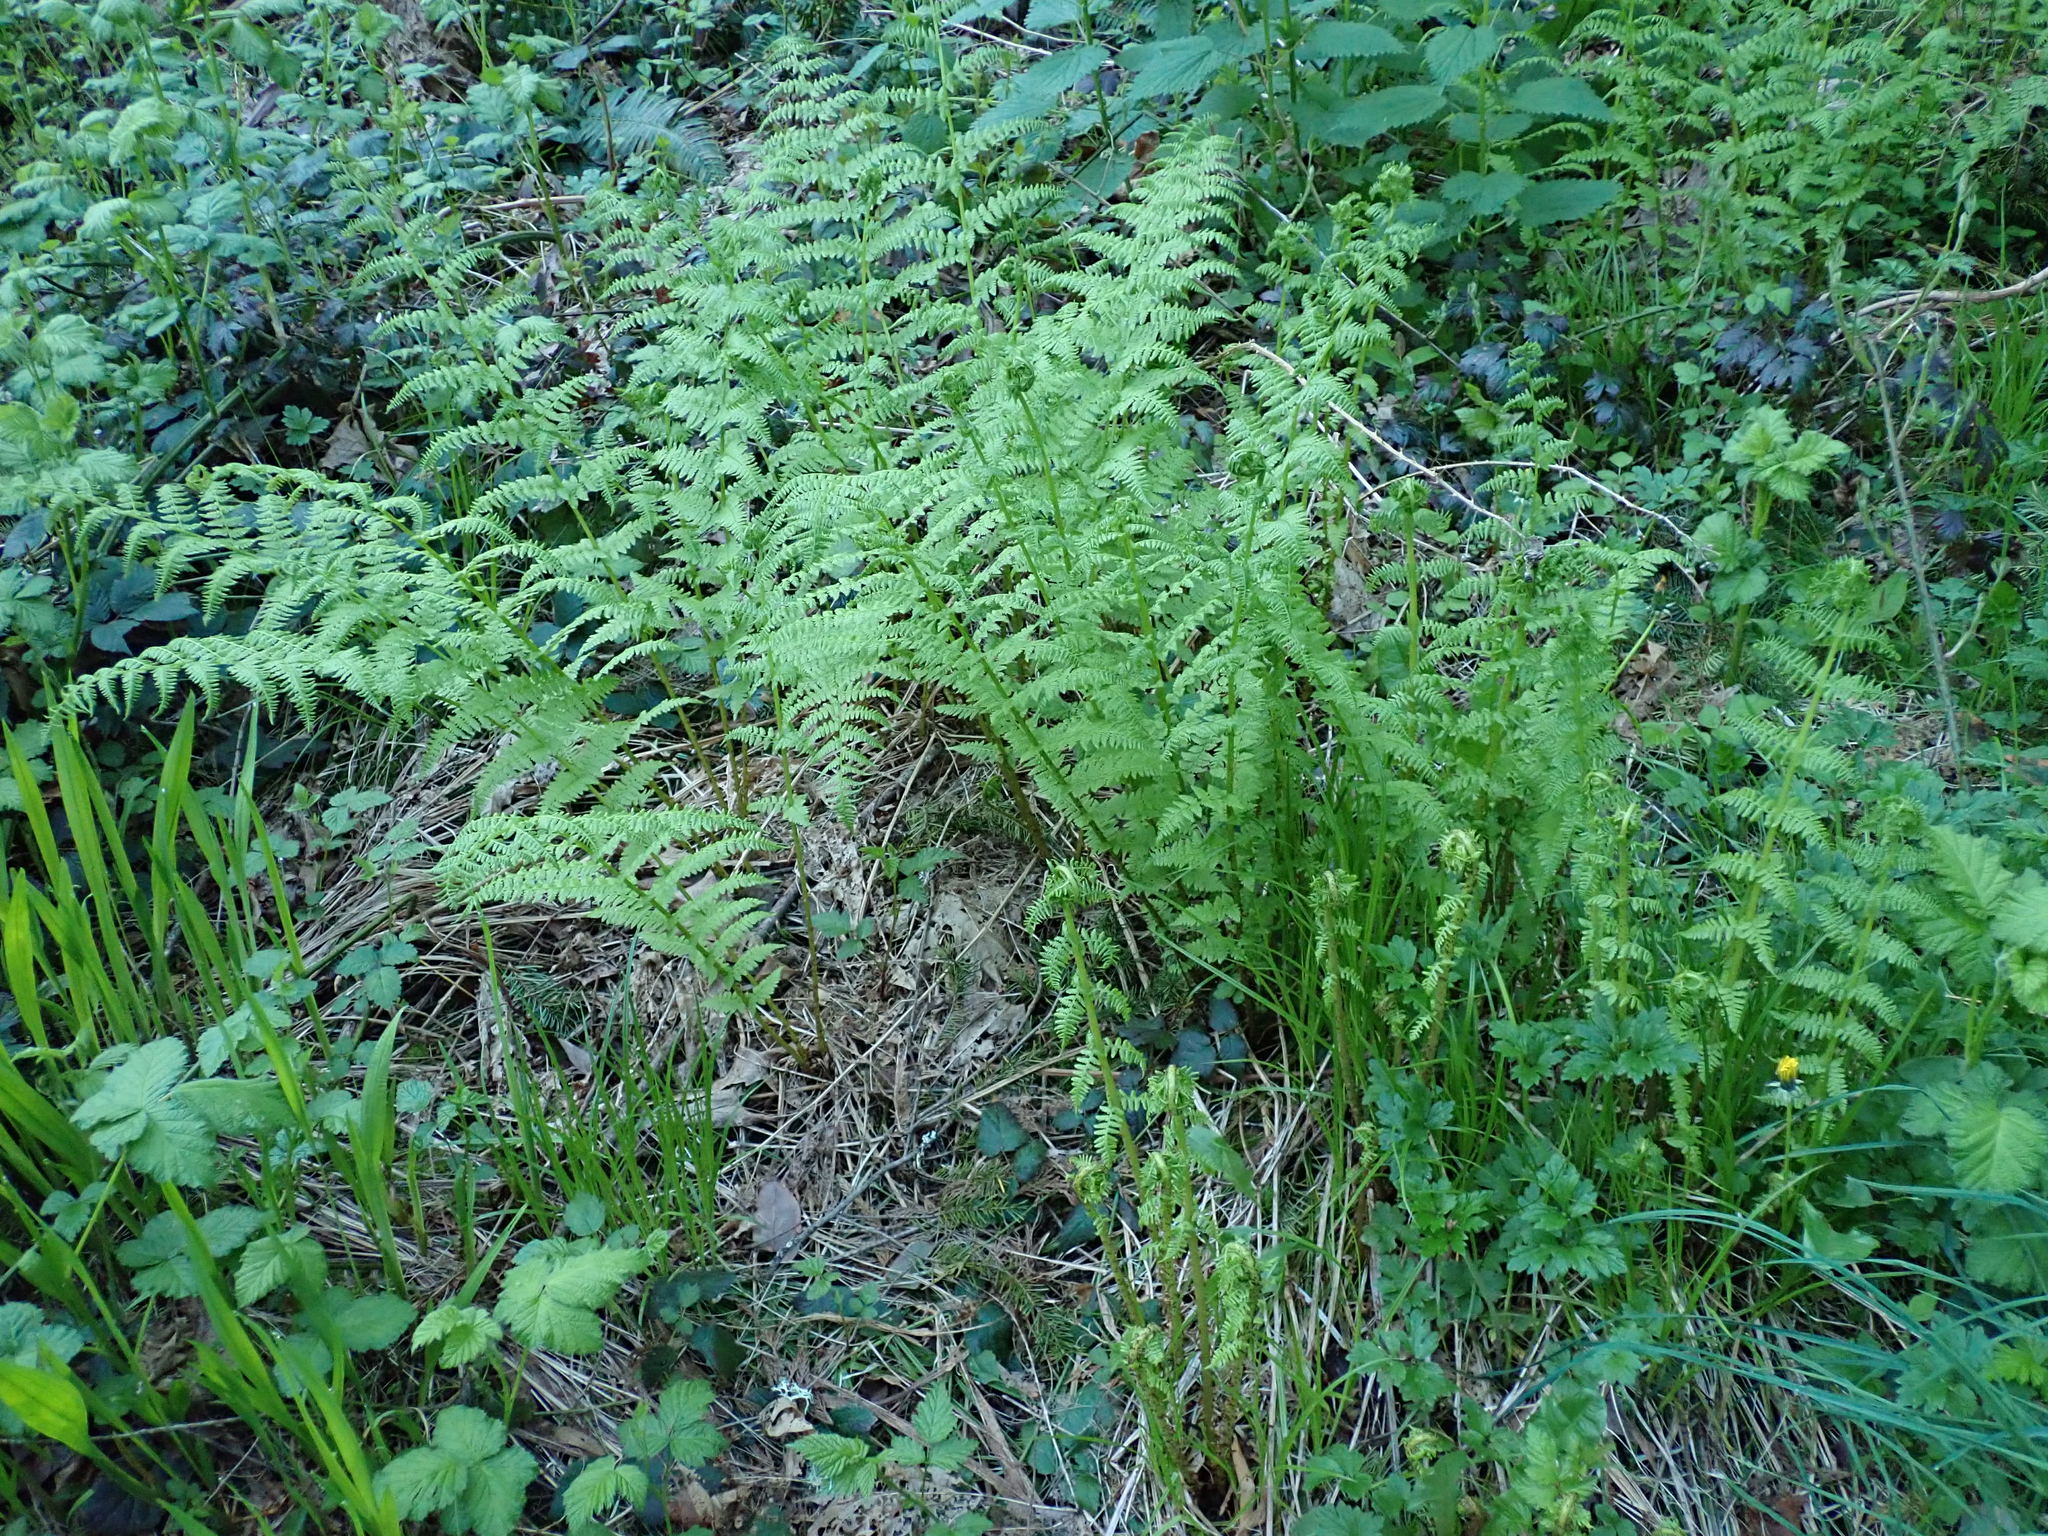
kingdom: Plantae
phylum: Tracheophyta
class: Polypodiopsida
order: Polypodiales
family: Athyriaceae
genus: Athyrium
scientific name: Athyrium filix-femina
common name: Lady fern
